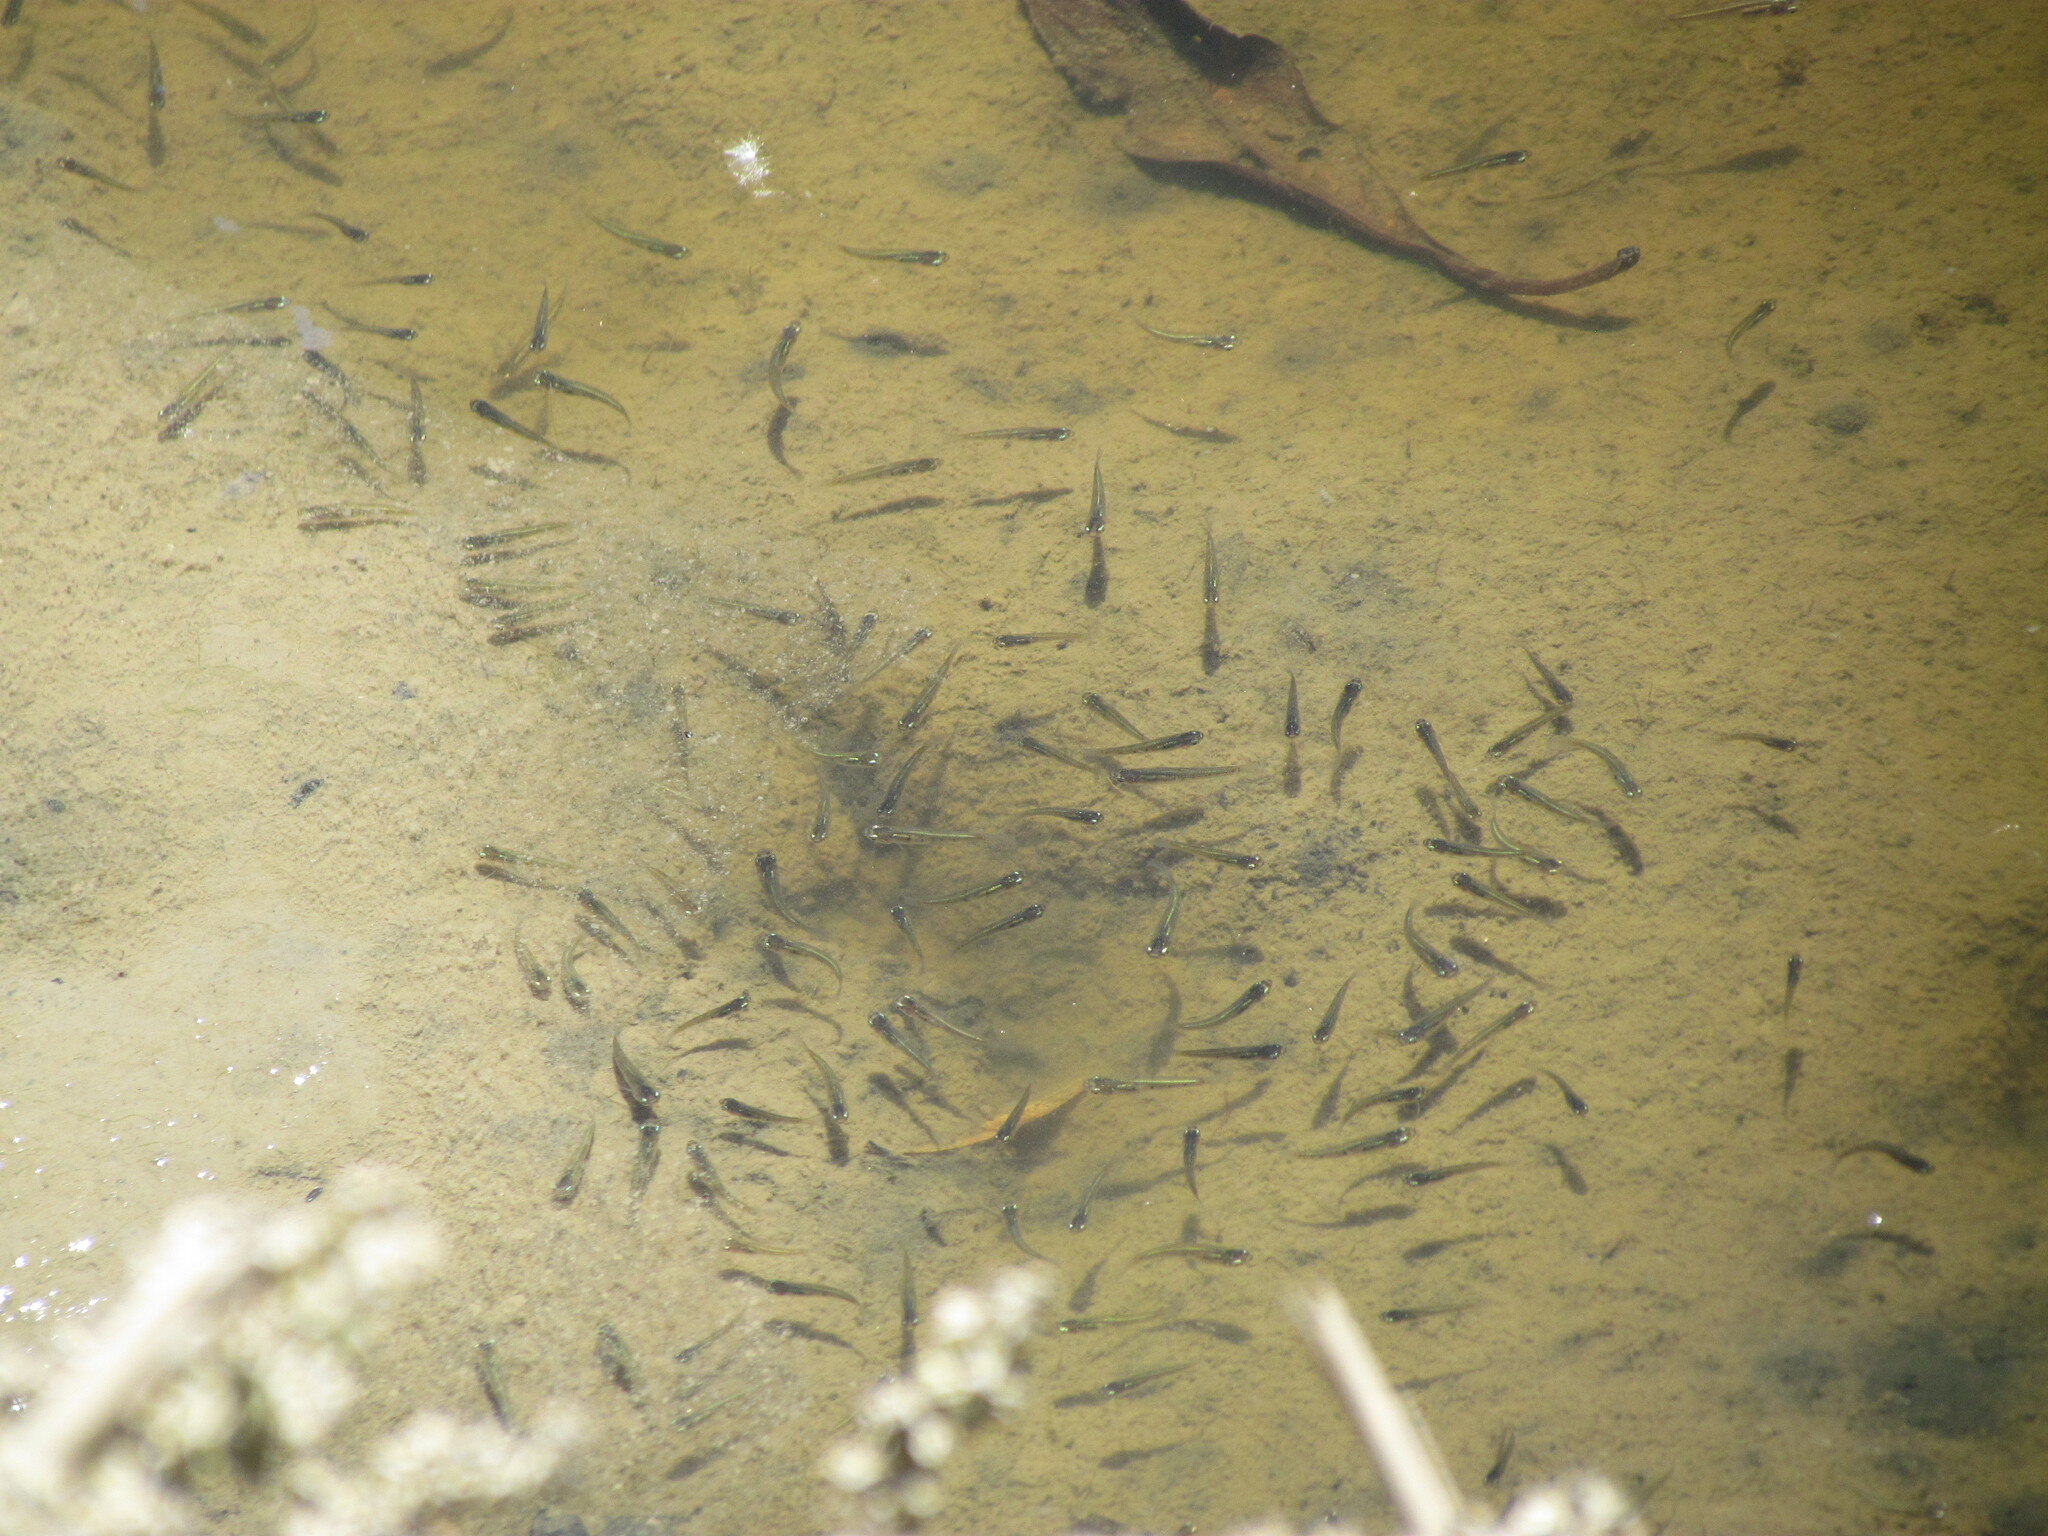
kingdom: Animalia
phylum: Chordata
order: Cyprinodontiformes
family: Poeciliidae
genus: Cnesterodon
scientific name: Cnesterodon decemmaculatus
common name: Ten spotted live-bearer
